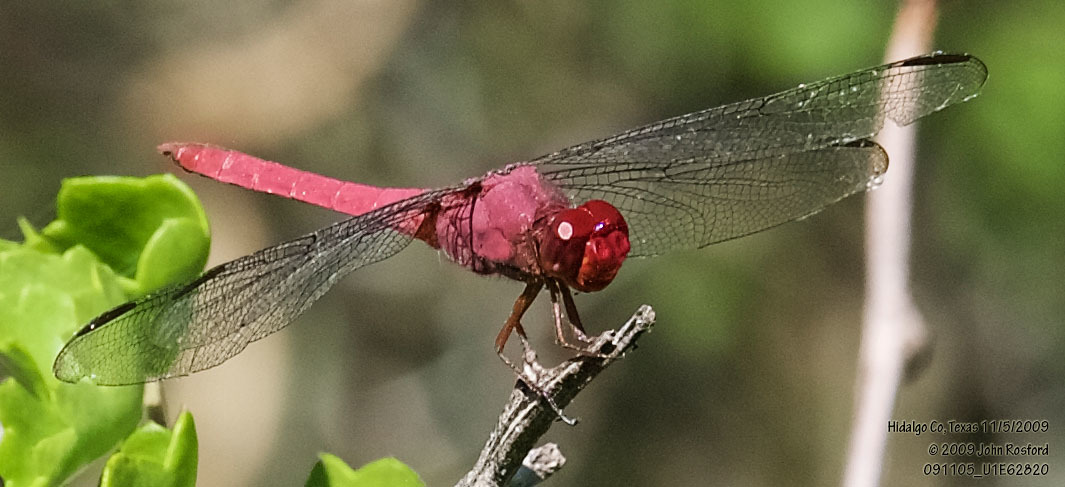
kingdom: Animalia
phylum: Arthropoda
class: Insecta
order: Odonata
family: Libellulidae
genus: Orthemis
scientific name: Orthemis discolor
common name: Carmine skimmer
